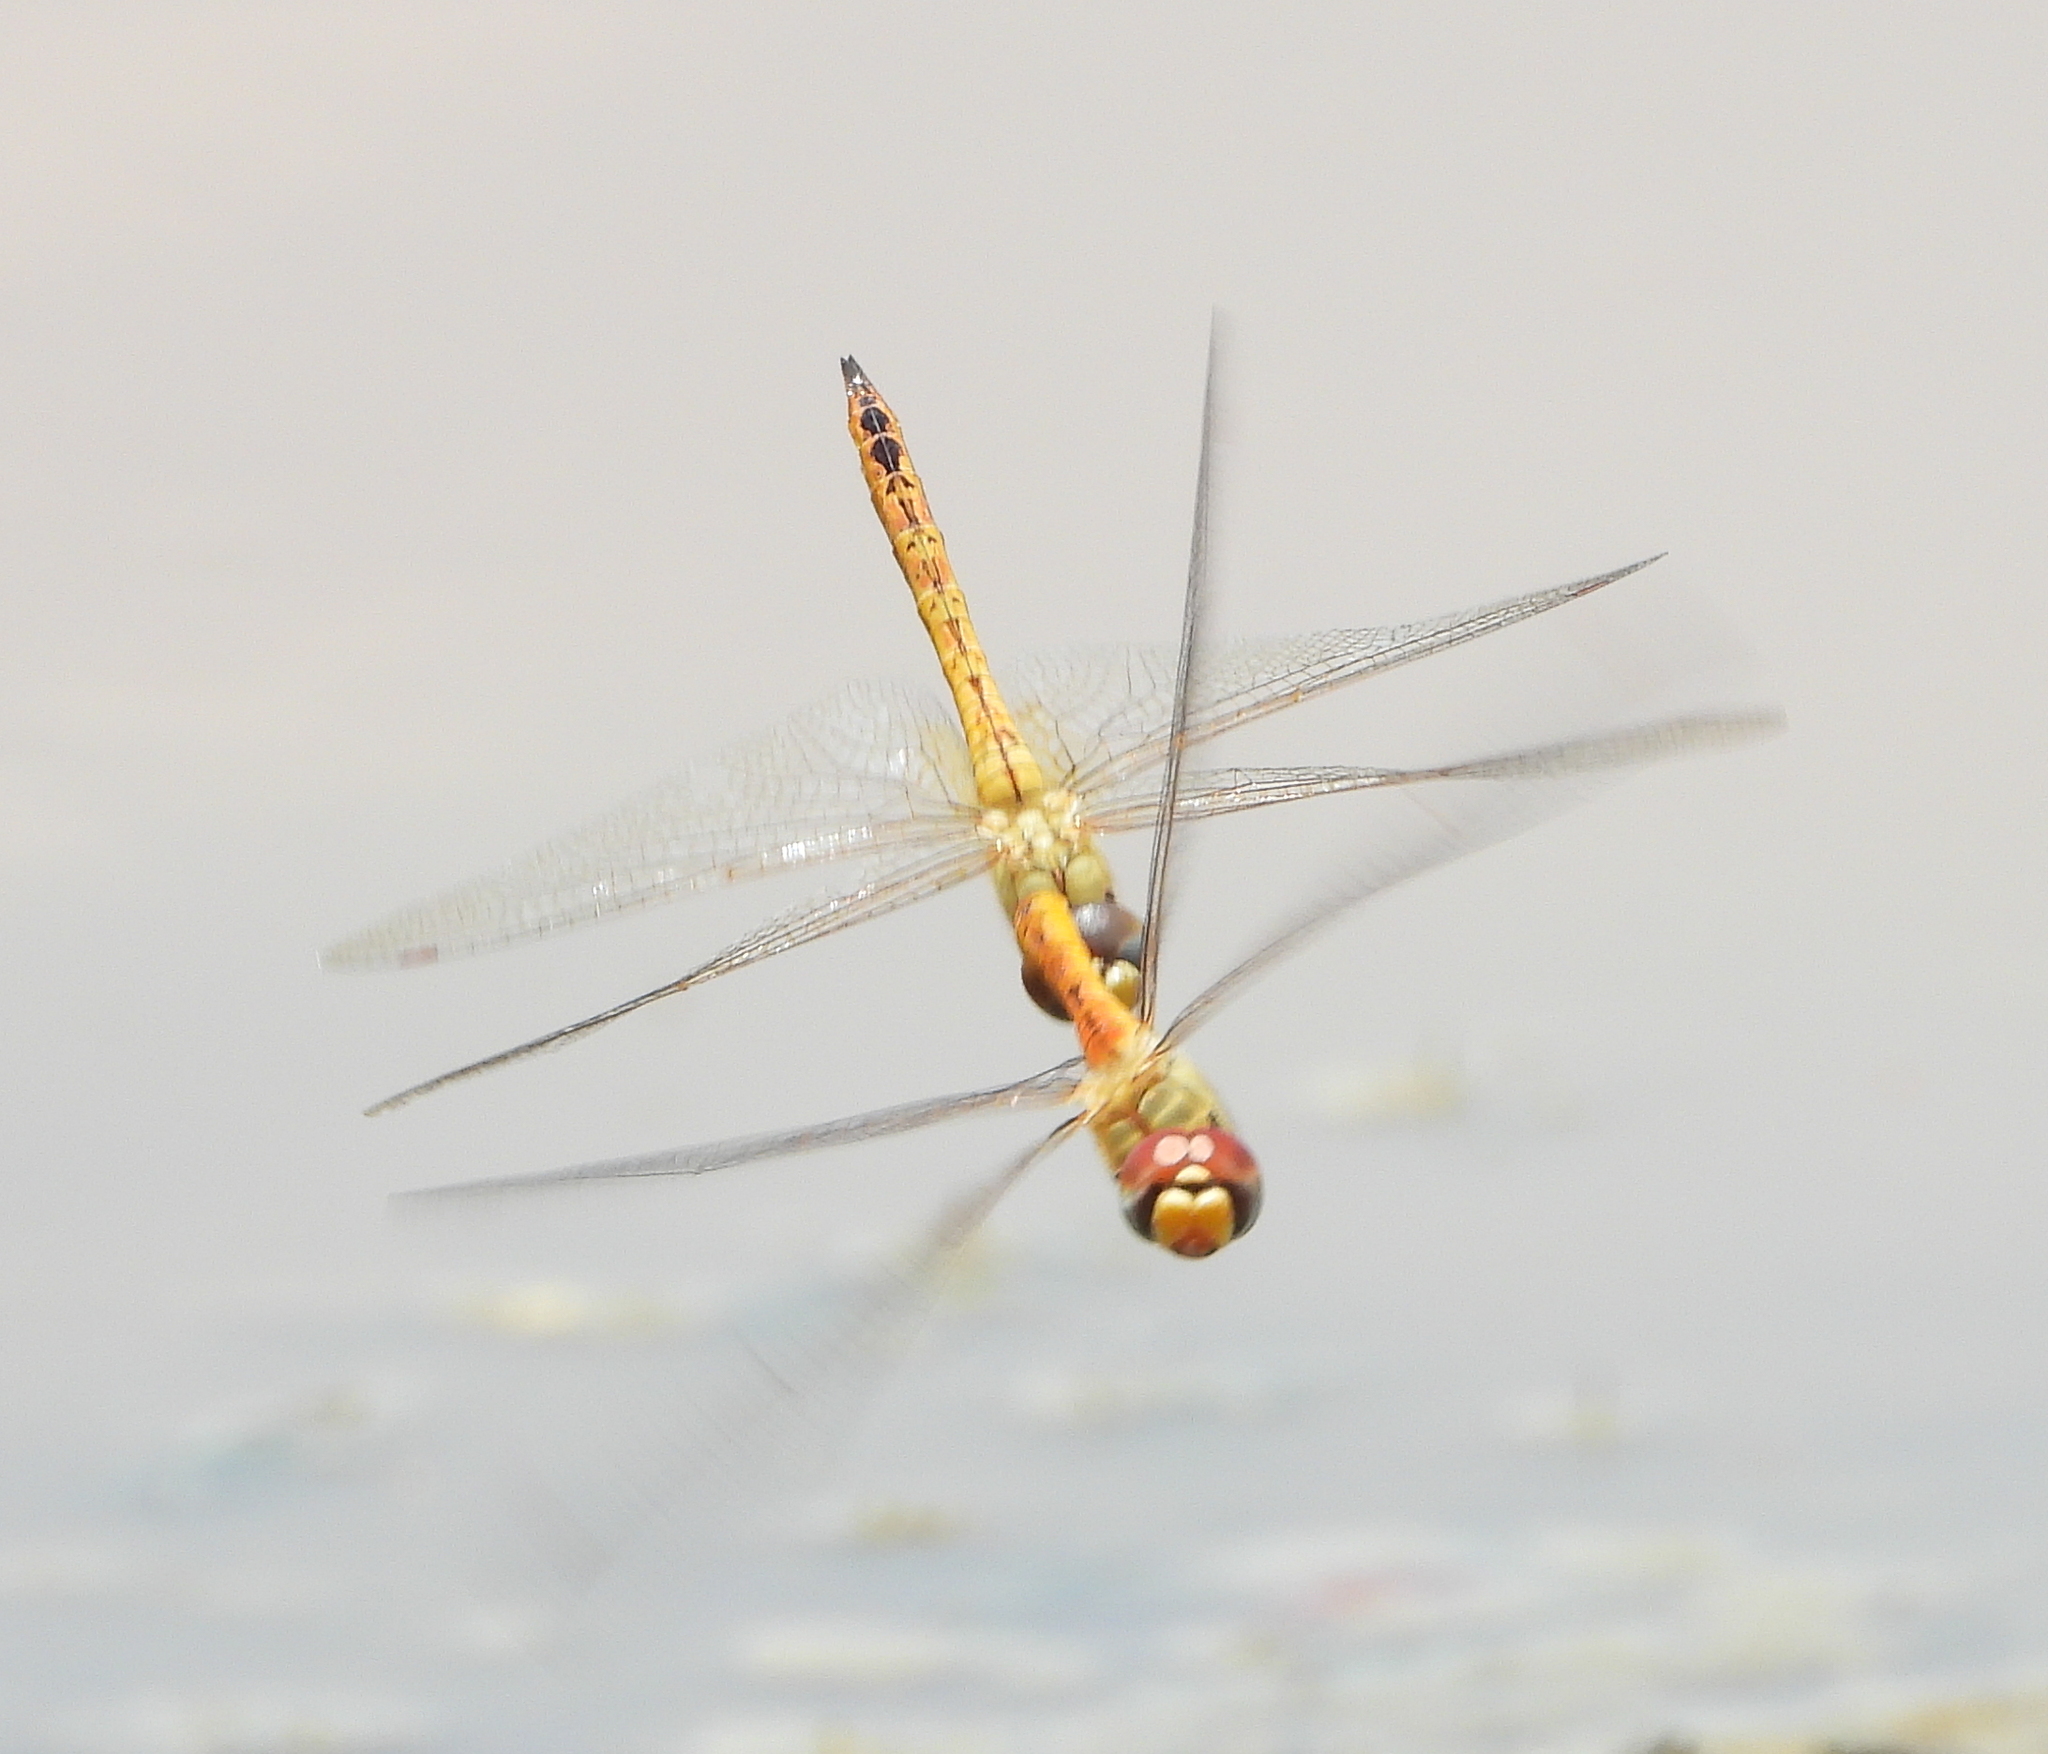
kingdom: Animalia
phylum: Arthropoda
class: Insecta
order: Odonata
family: Libellulidae
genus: Pantala
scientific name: Pantala flavescens
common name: Wandering glider
